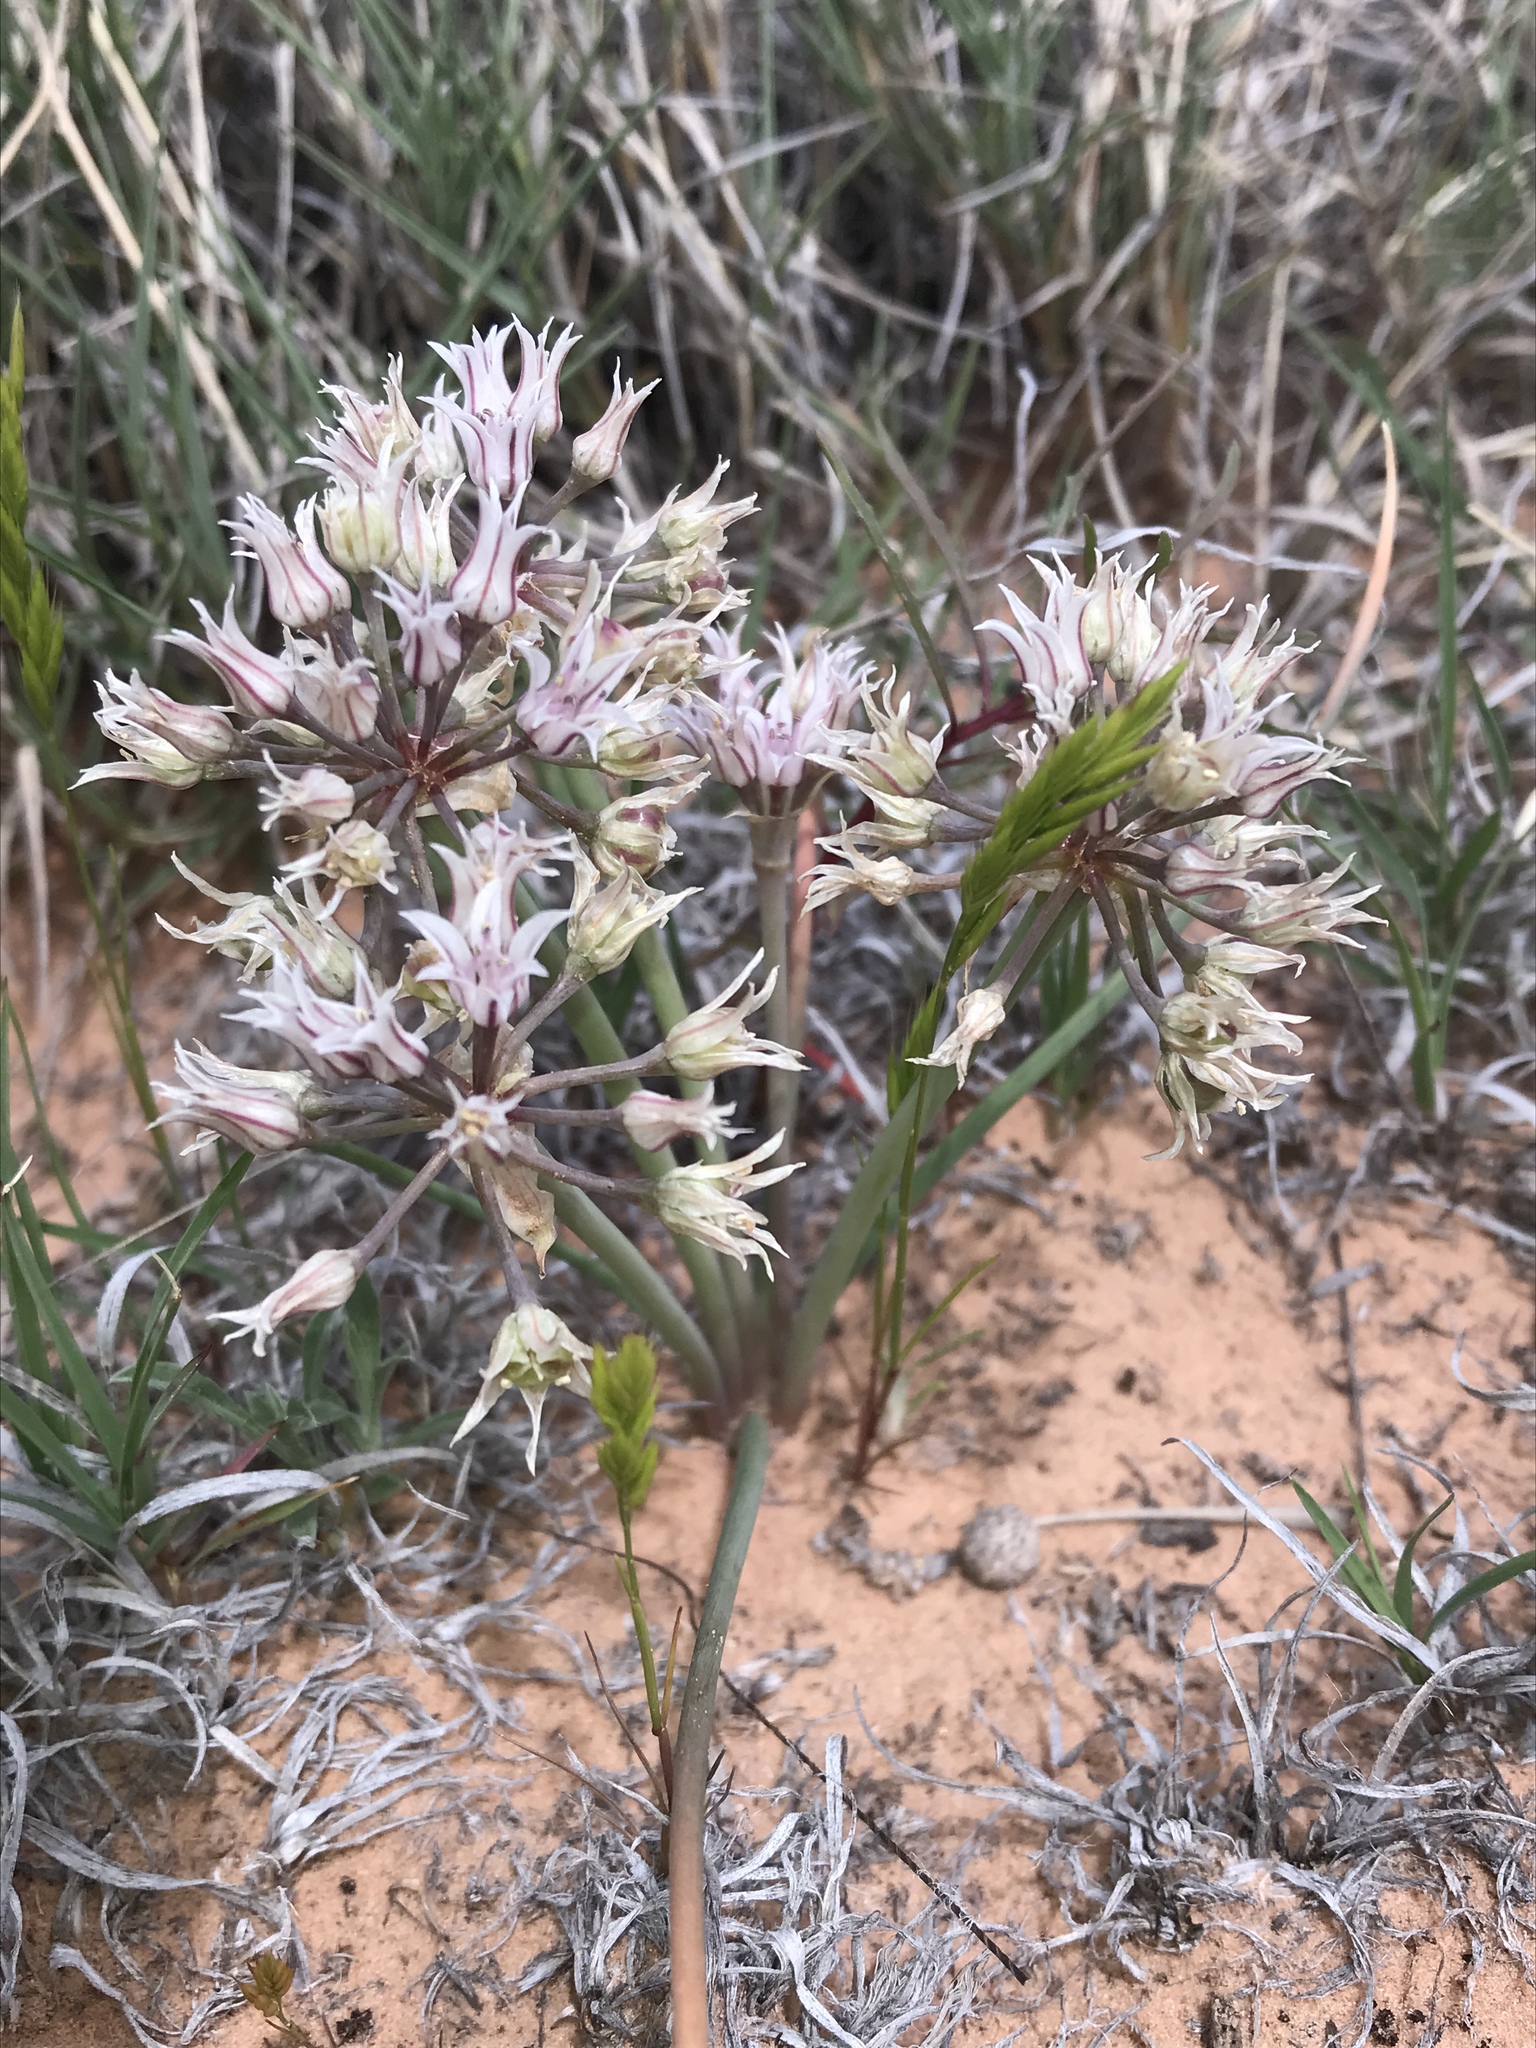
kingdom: Plantae
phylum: Tracheophyta
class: Liliopsida
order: Asparagales
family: Amaryllidaceae
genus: Allium
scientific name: Allium macropetalum
